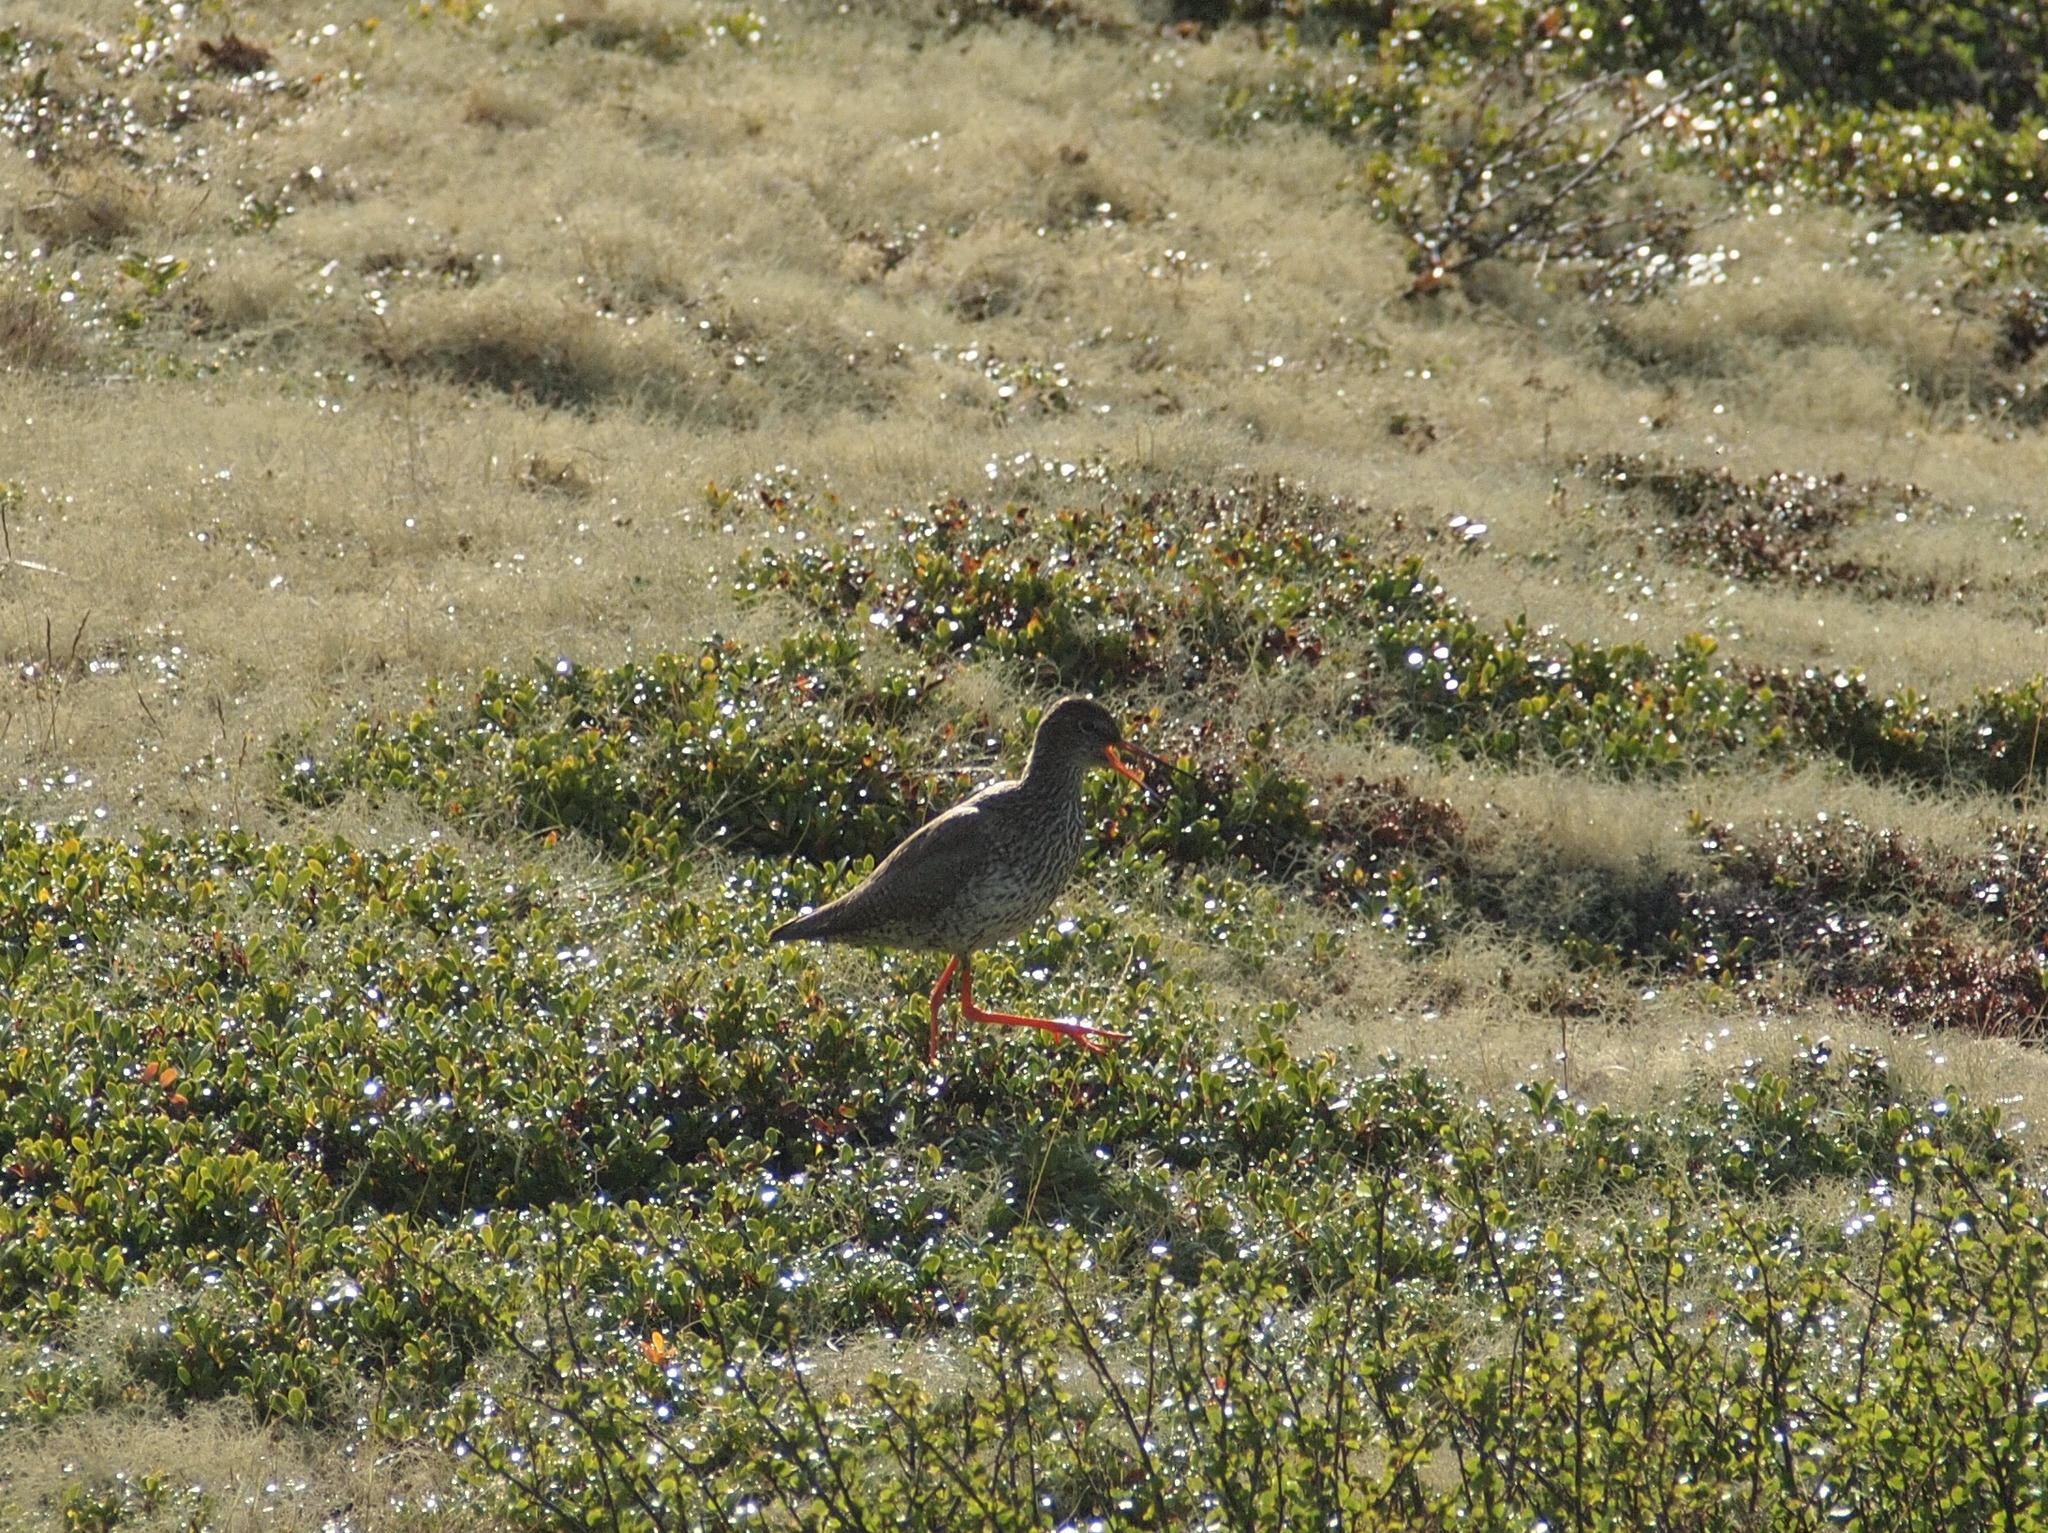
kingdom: Animalia
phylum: Chordata
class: Aves
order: Charadriiformes
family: Scolopacidae
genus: Tringa
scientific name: Tringa totanus
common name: Common redshank
